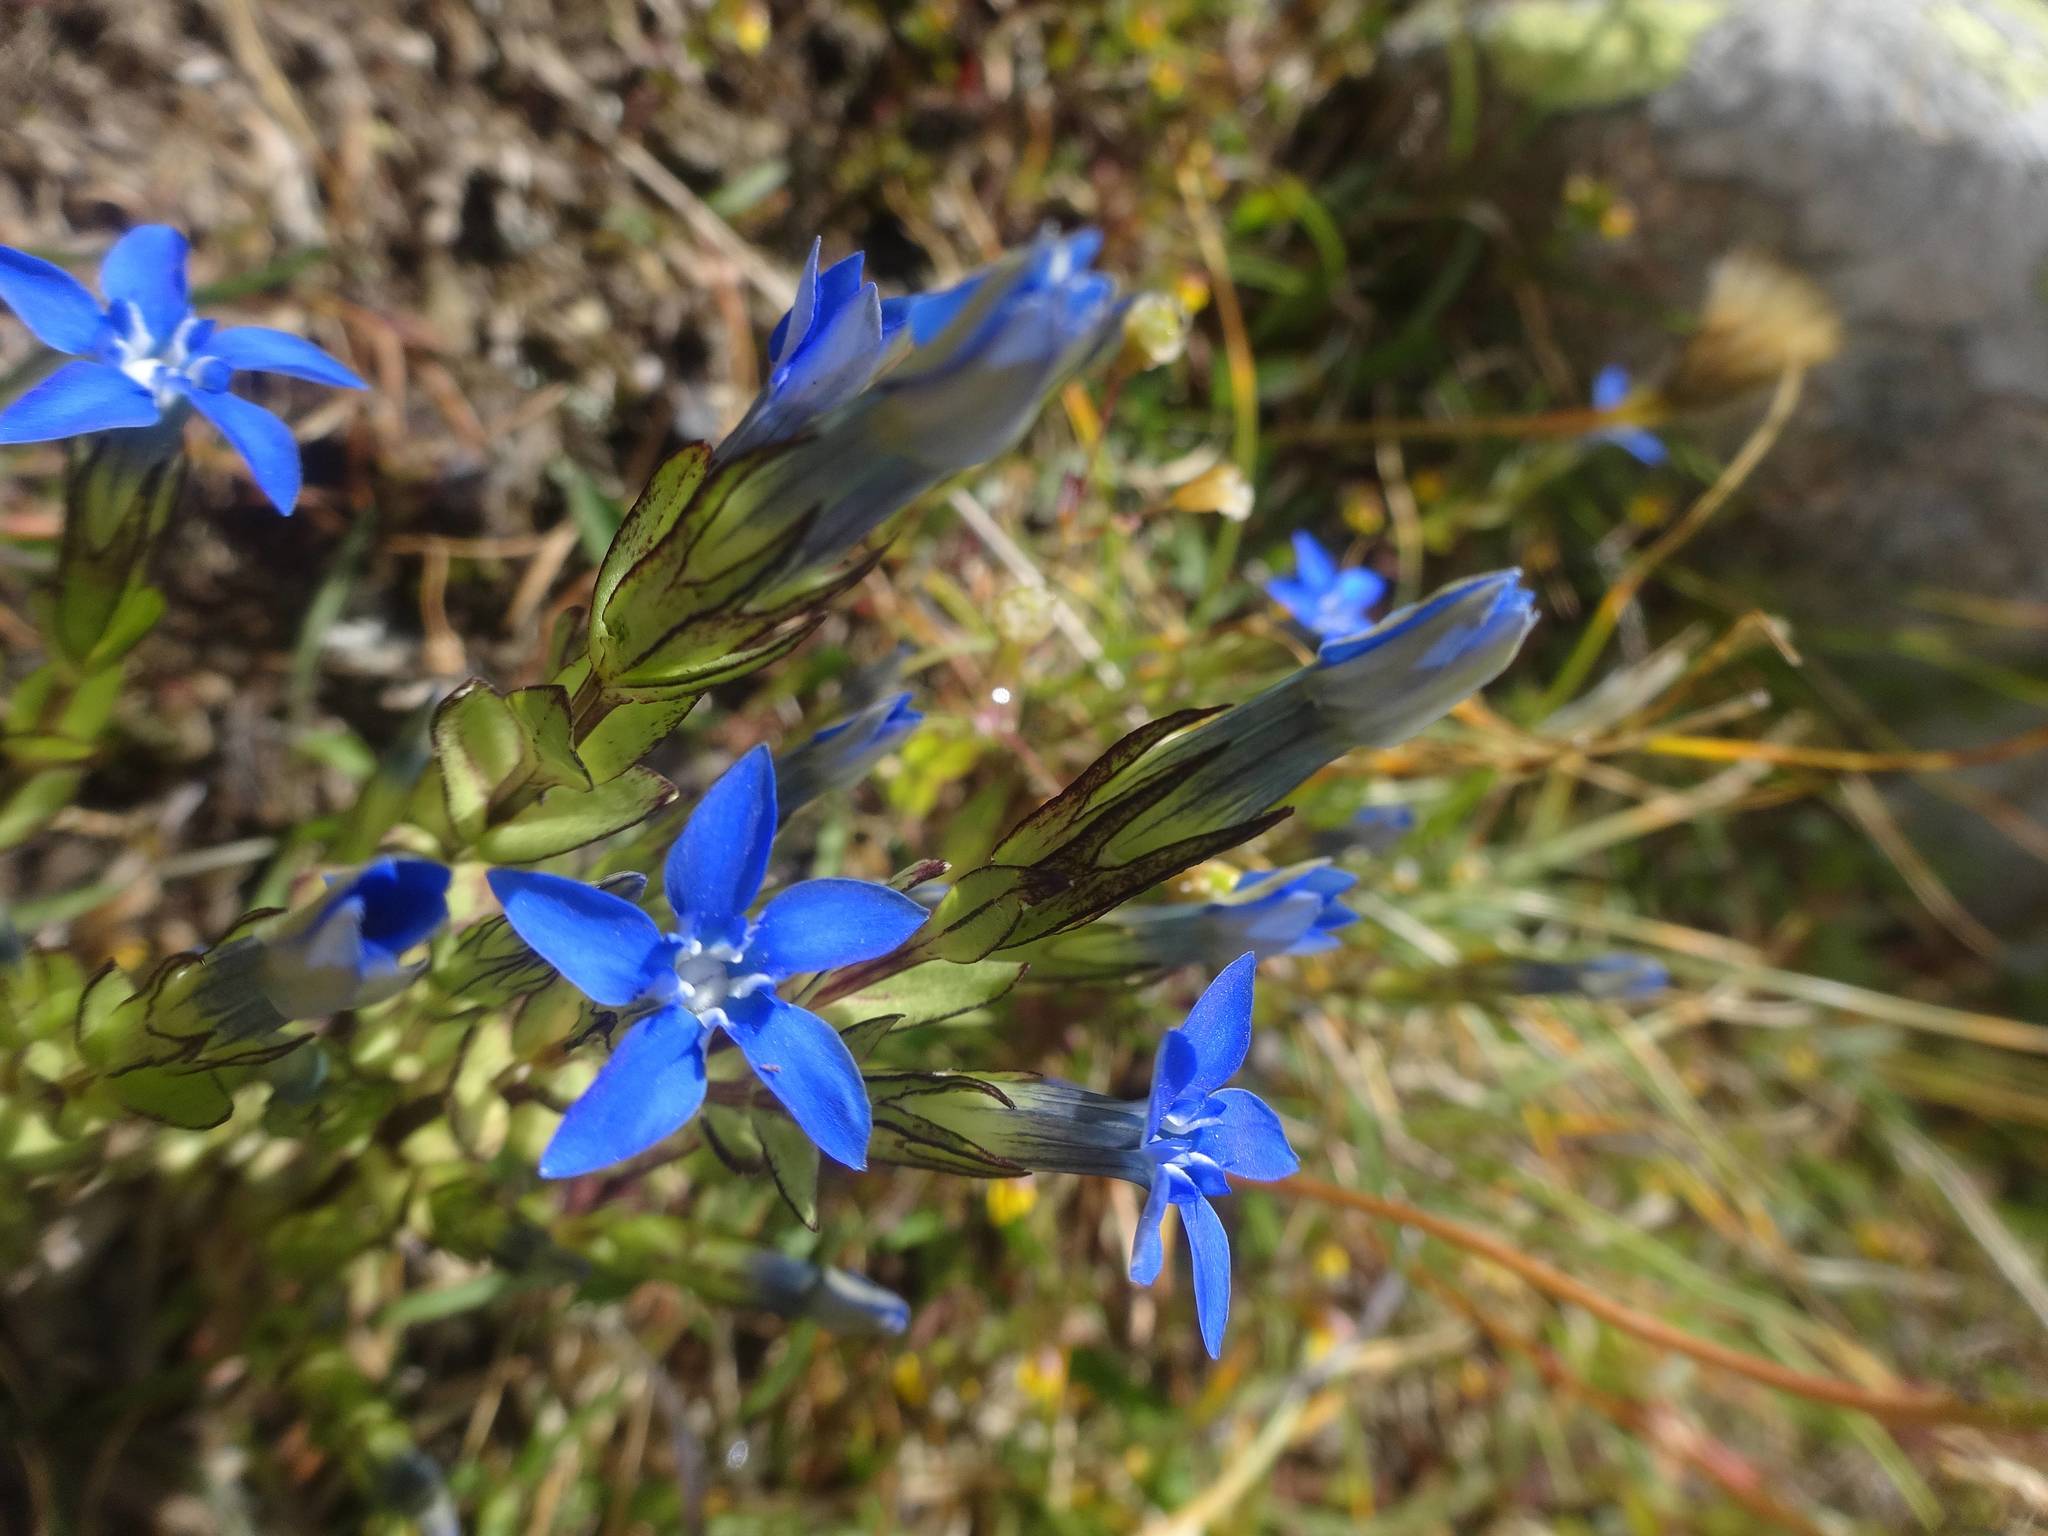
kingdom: Plantae
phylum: Tracheophyta
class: Magnoliopsida
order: Gentianales
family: Gentianaceae
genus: Gentiana
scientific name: Gentiana nivalis
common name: Alpine gentian
